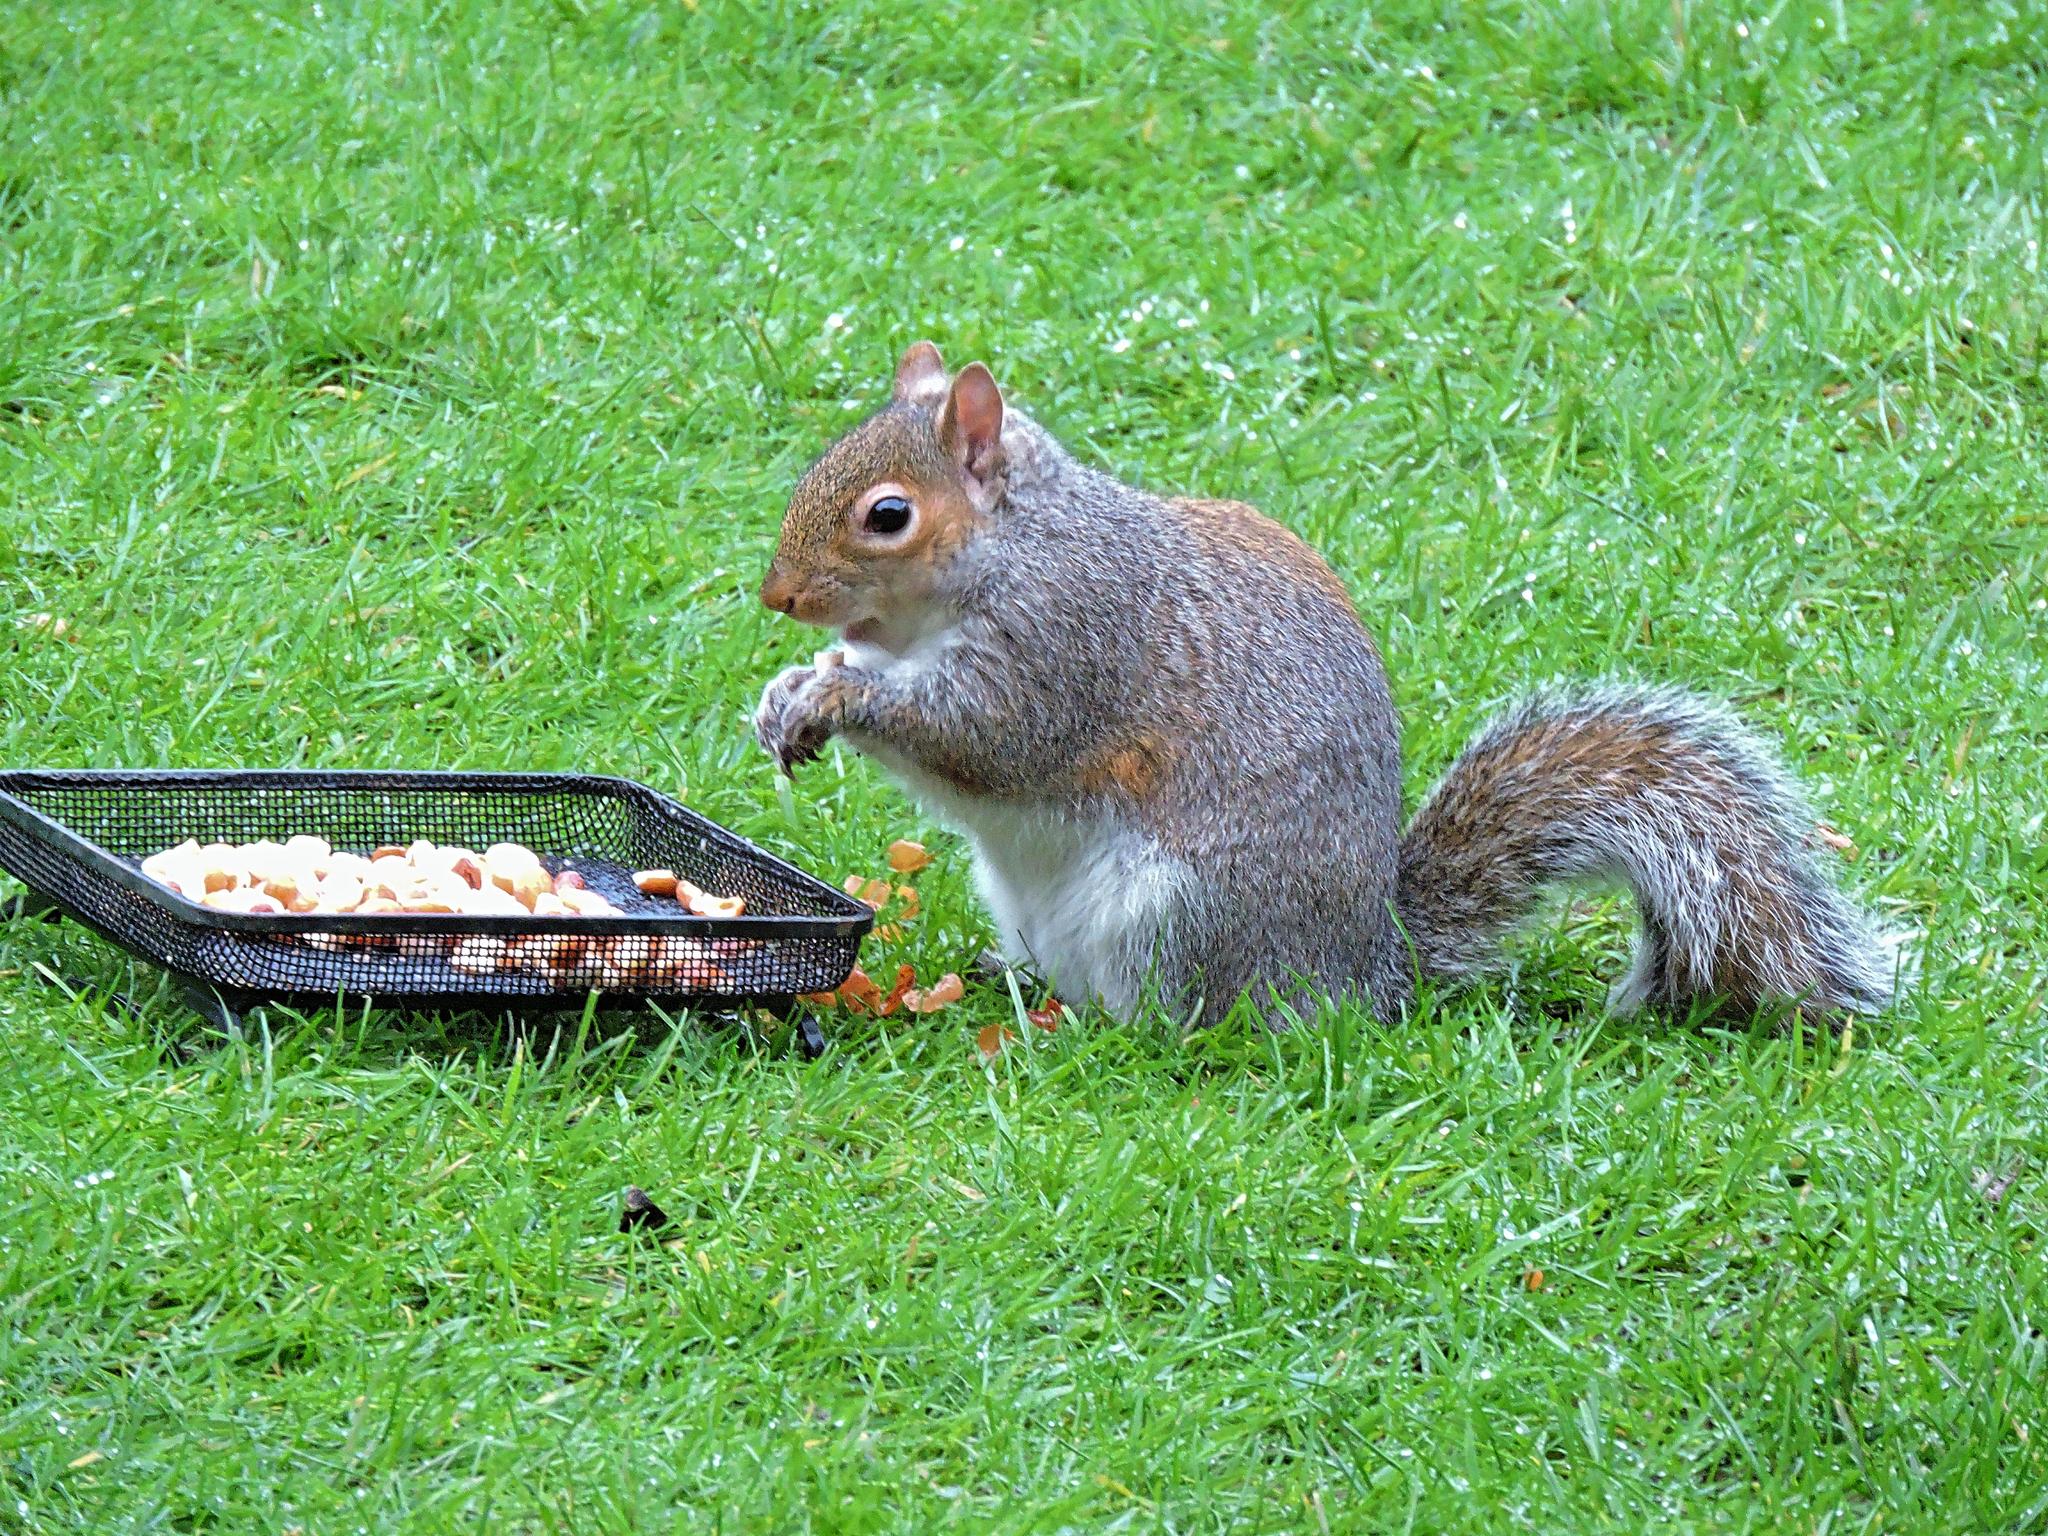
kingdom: Animalia
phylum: Chordata
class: Mammalia
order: Rodentia
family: Sciuridae
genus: Sciurus
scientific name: Sciurus carolinensis
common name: Eastern gray squirrel
